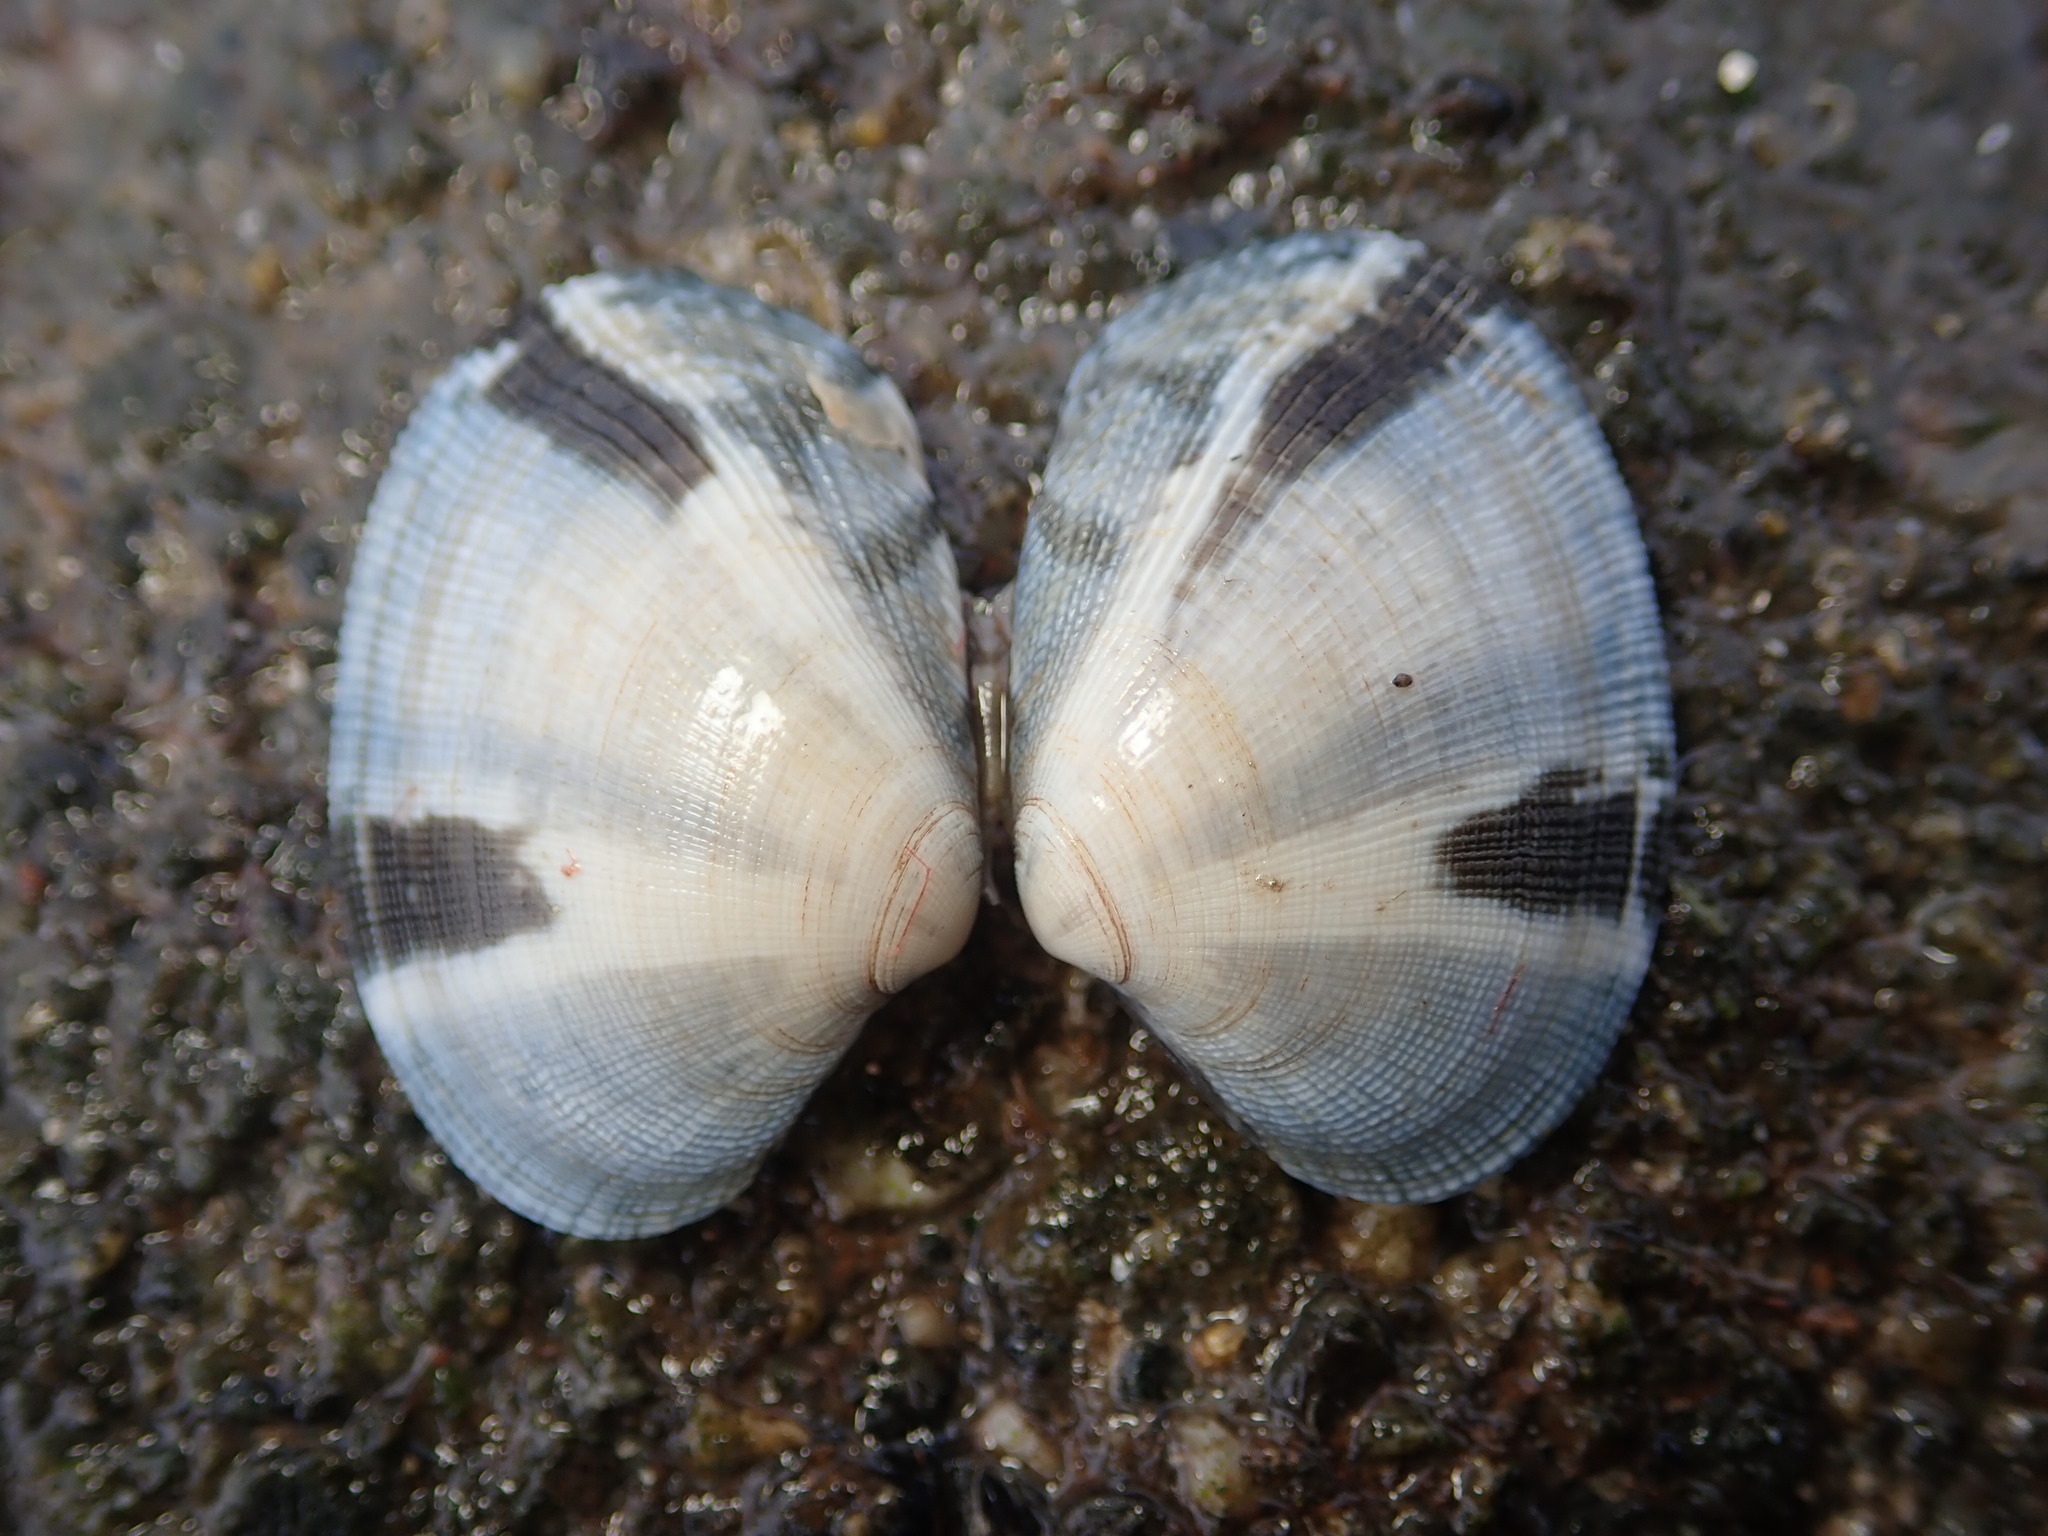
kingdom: Animalia
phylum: Mollusca
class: Bivalvia
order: Venerida
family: Veneridae
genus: Ruditapes
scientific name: Ruditapes philippinarum
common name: Manila clam
